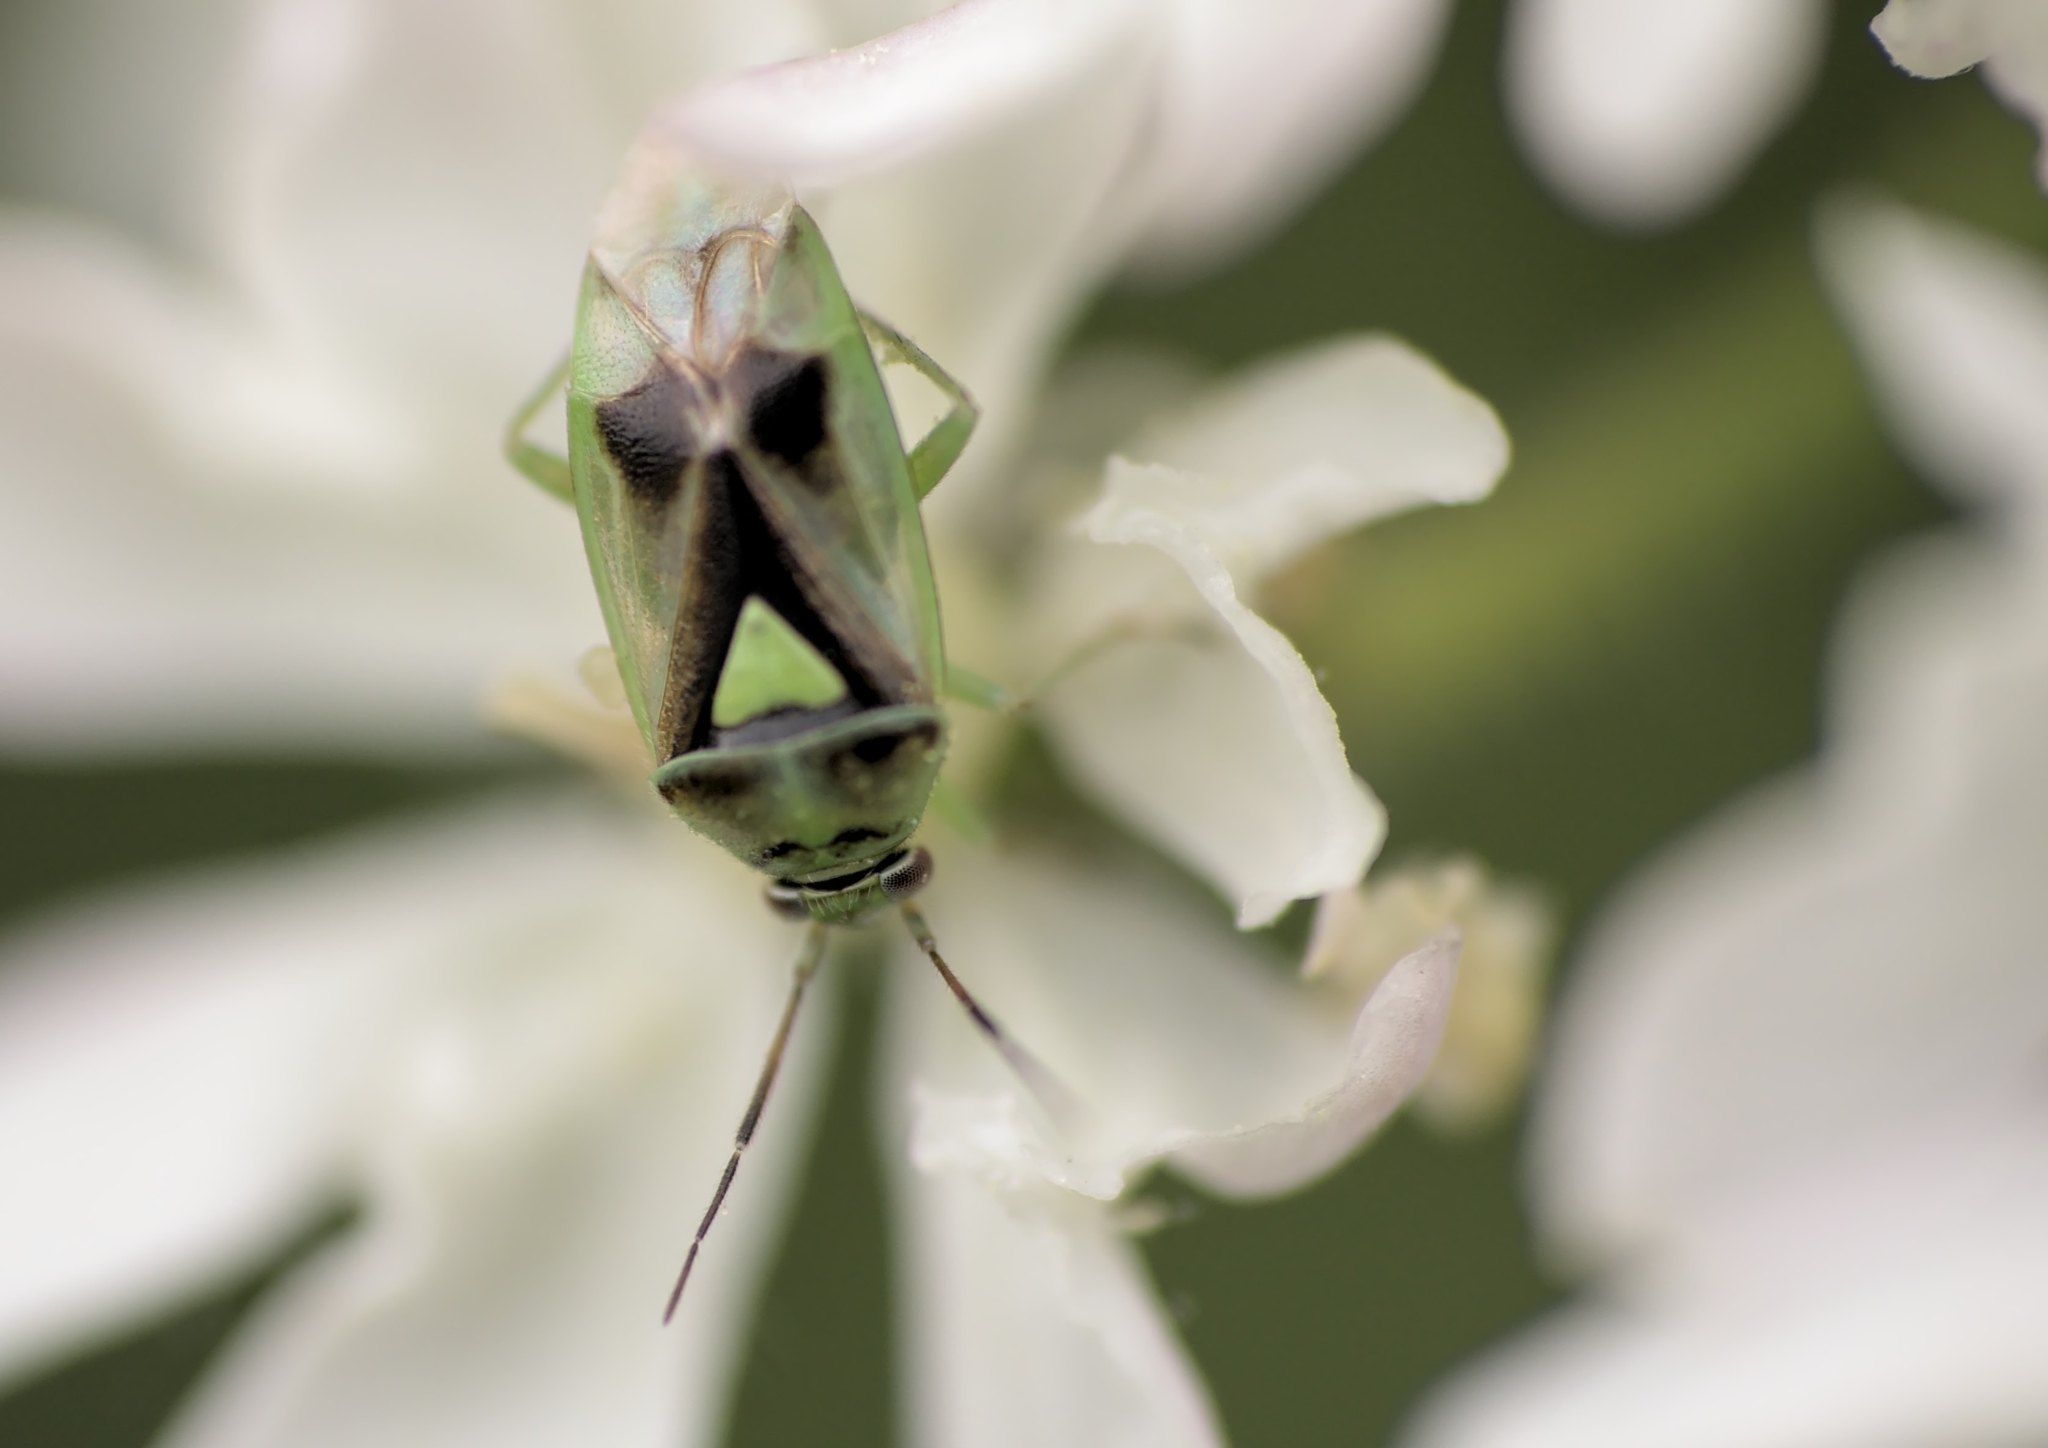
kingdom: Animalia
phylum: Arthropoda
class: Insecta
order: Hemiptera
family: Miridae
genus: Orthops
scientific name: Orthops campestris
